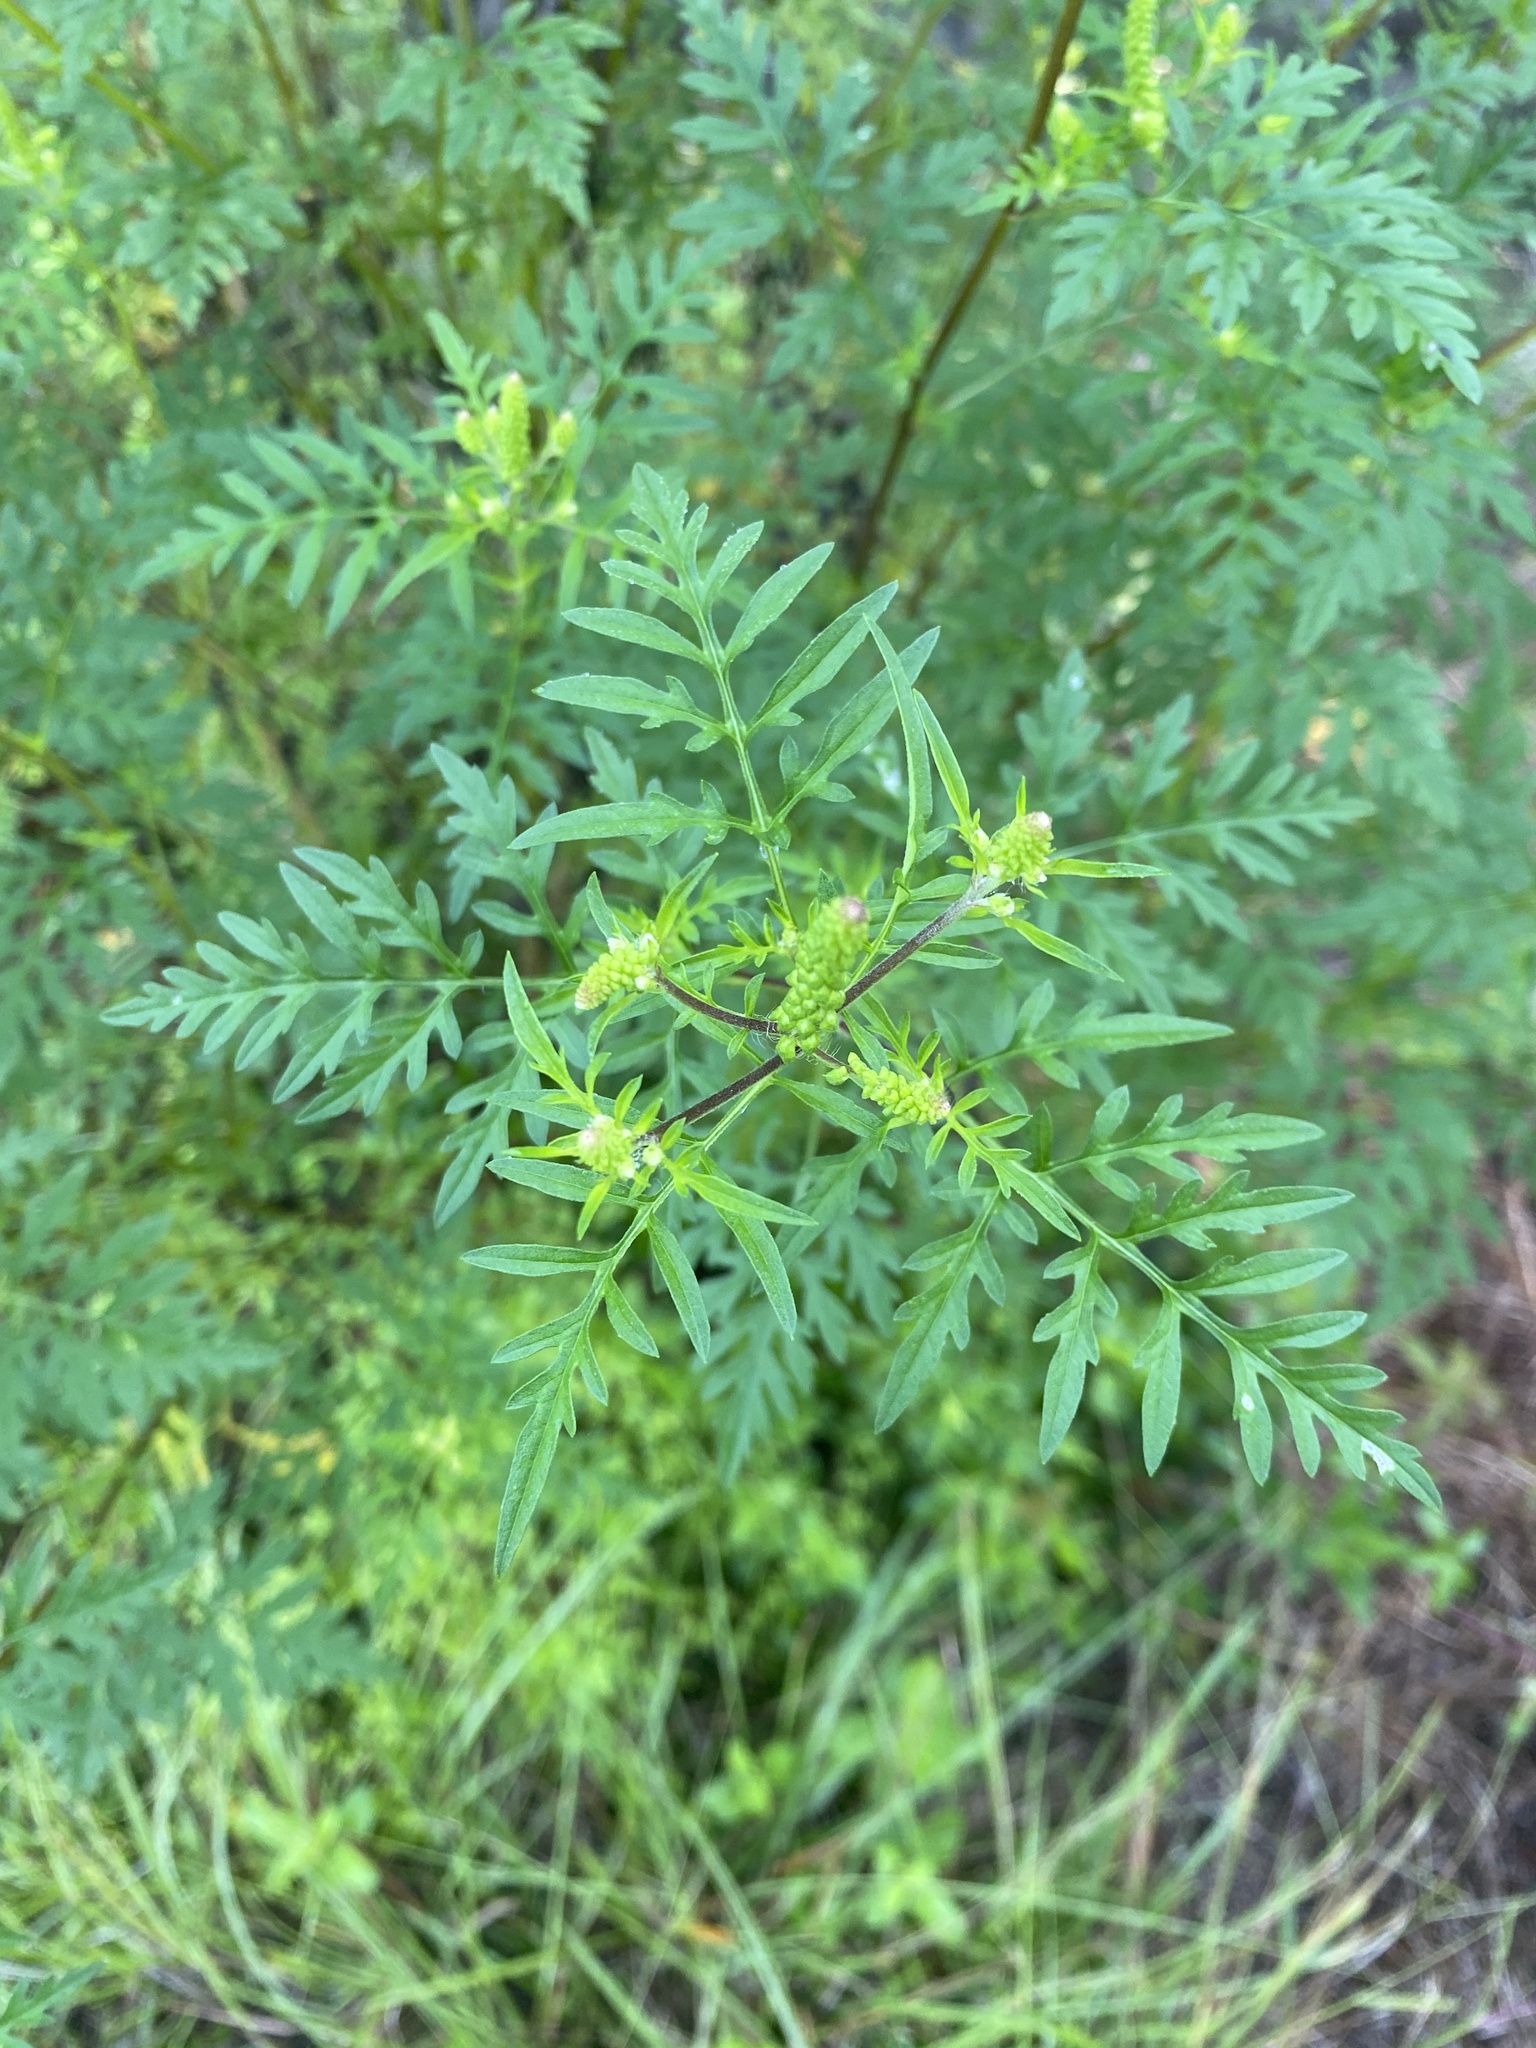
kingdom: Plantae
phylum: Tracheophyta
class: Magnoliopsida
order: Asterales
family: Asteraceae
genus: Ambrosia
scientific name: Ambrosia artemisiifolia
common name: Annual ragweed
